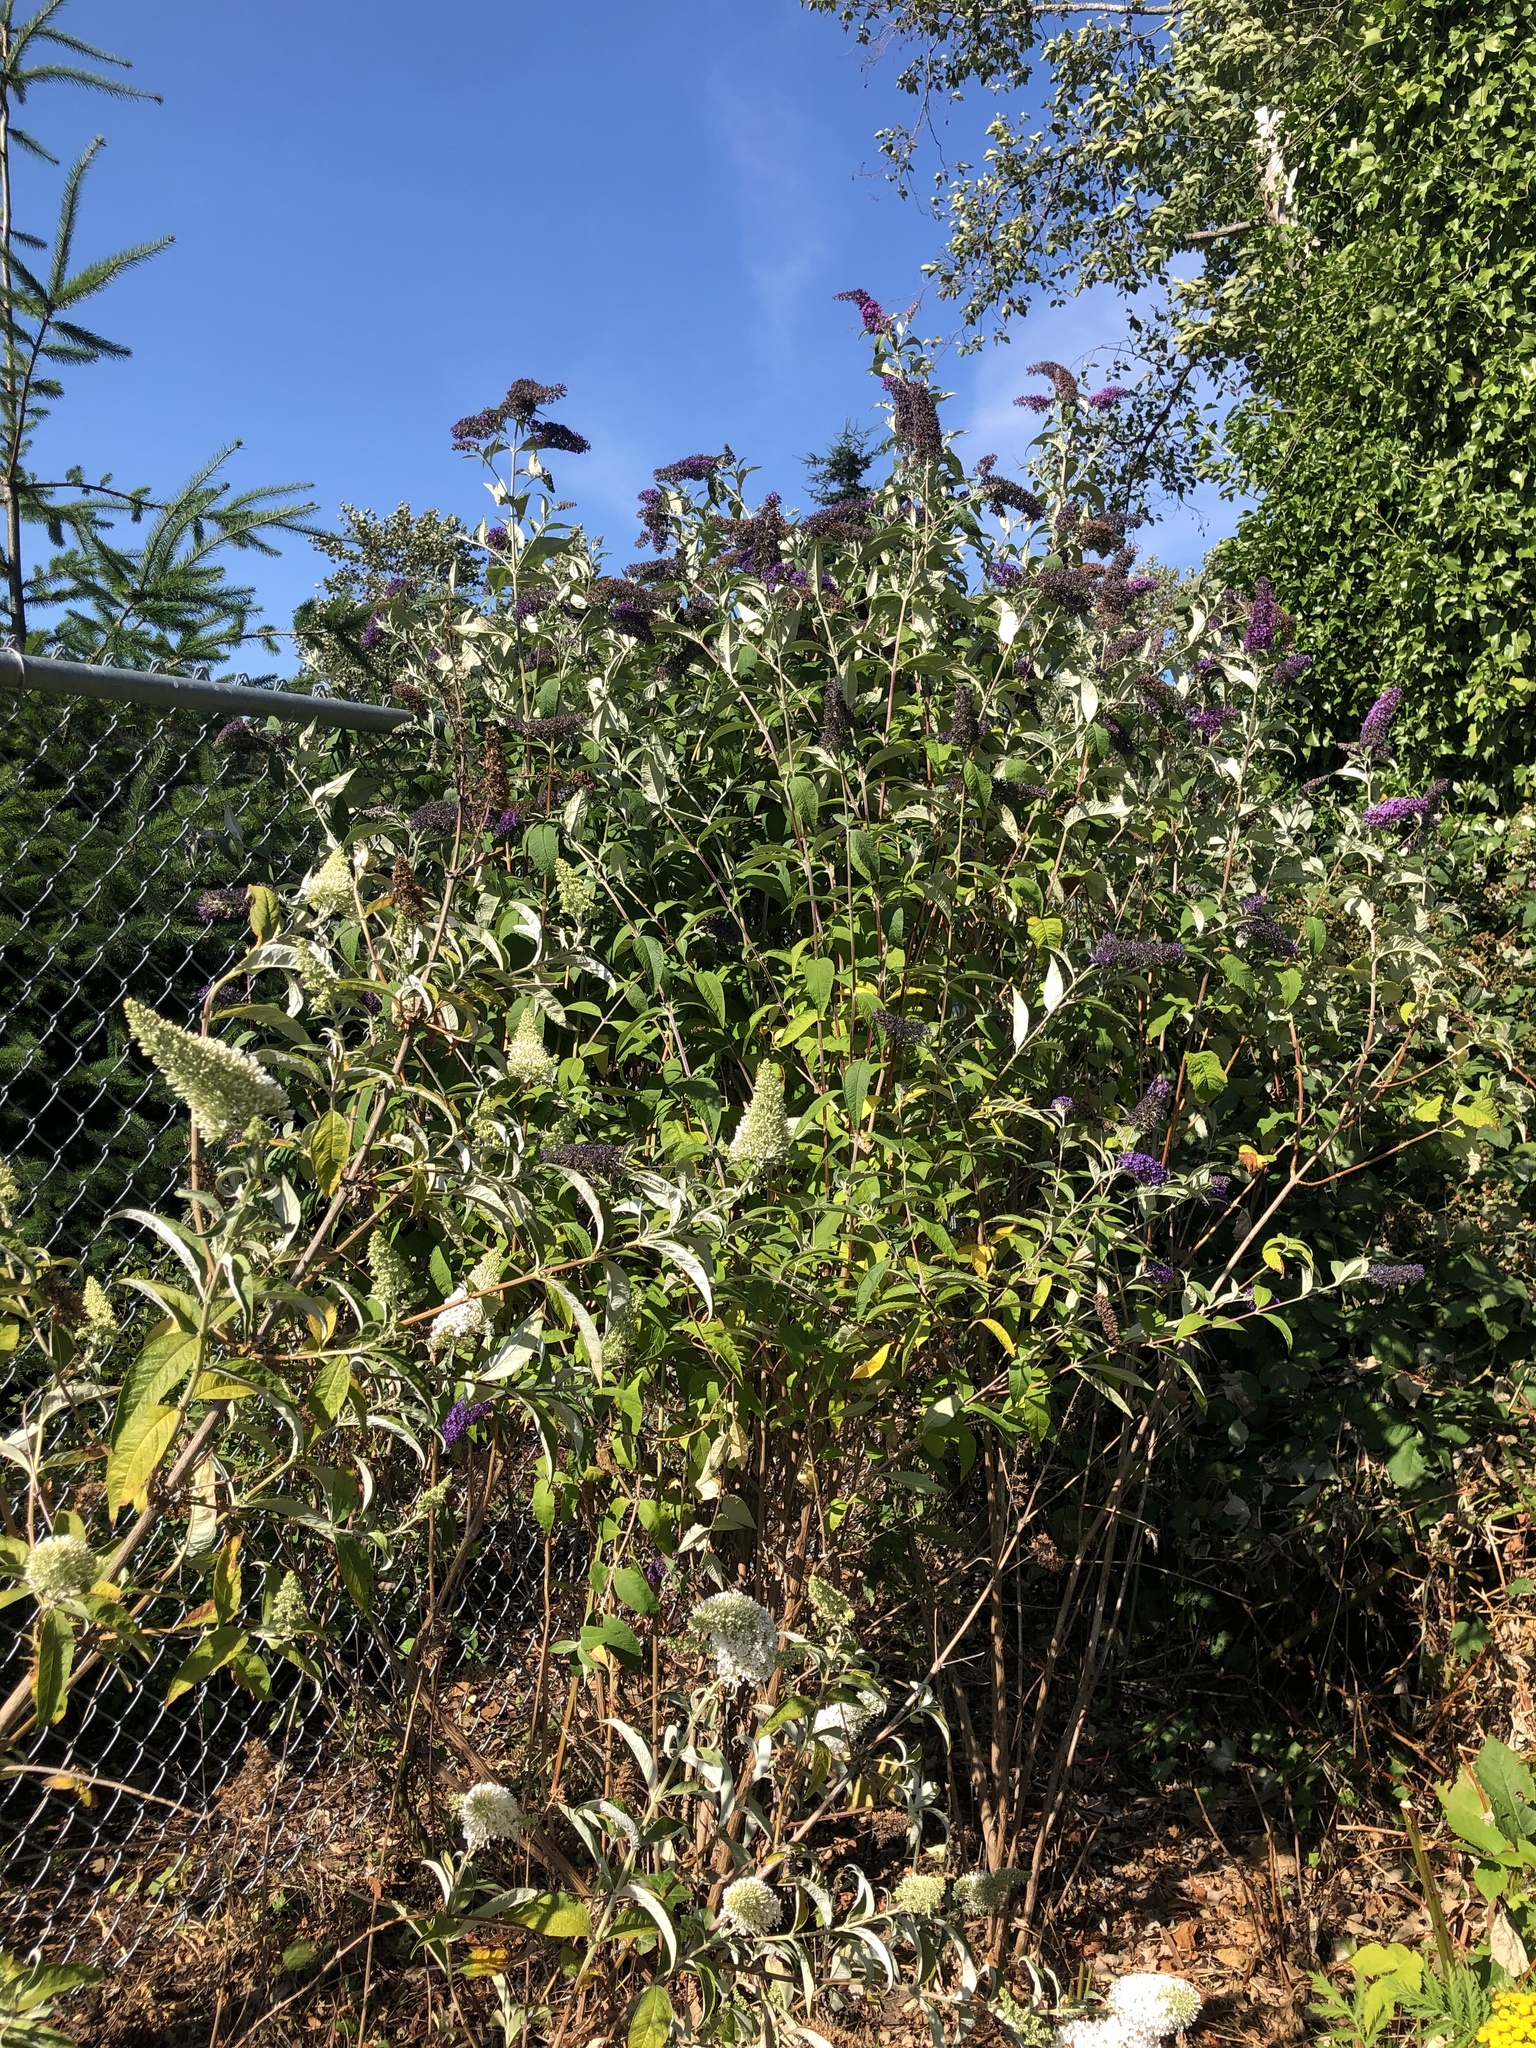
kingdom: Plantae
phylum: Tracheophyta
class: Magnoliopsida
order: Lamiales
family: Scrophulariaceae
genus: Buddleja
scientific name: Buddleja davidii
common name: Butterfly-bush
